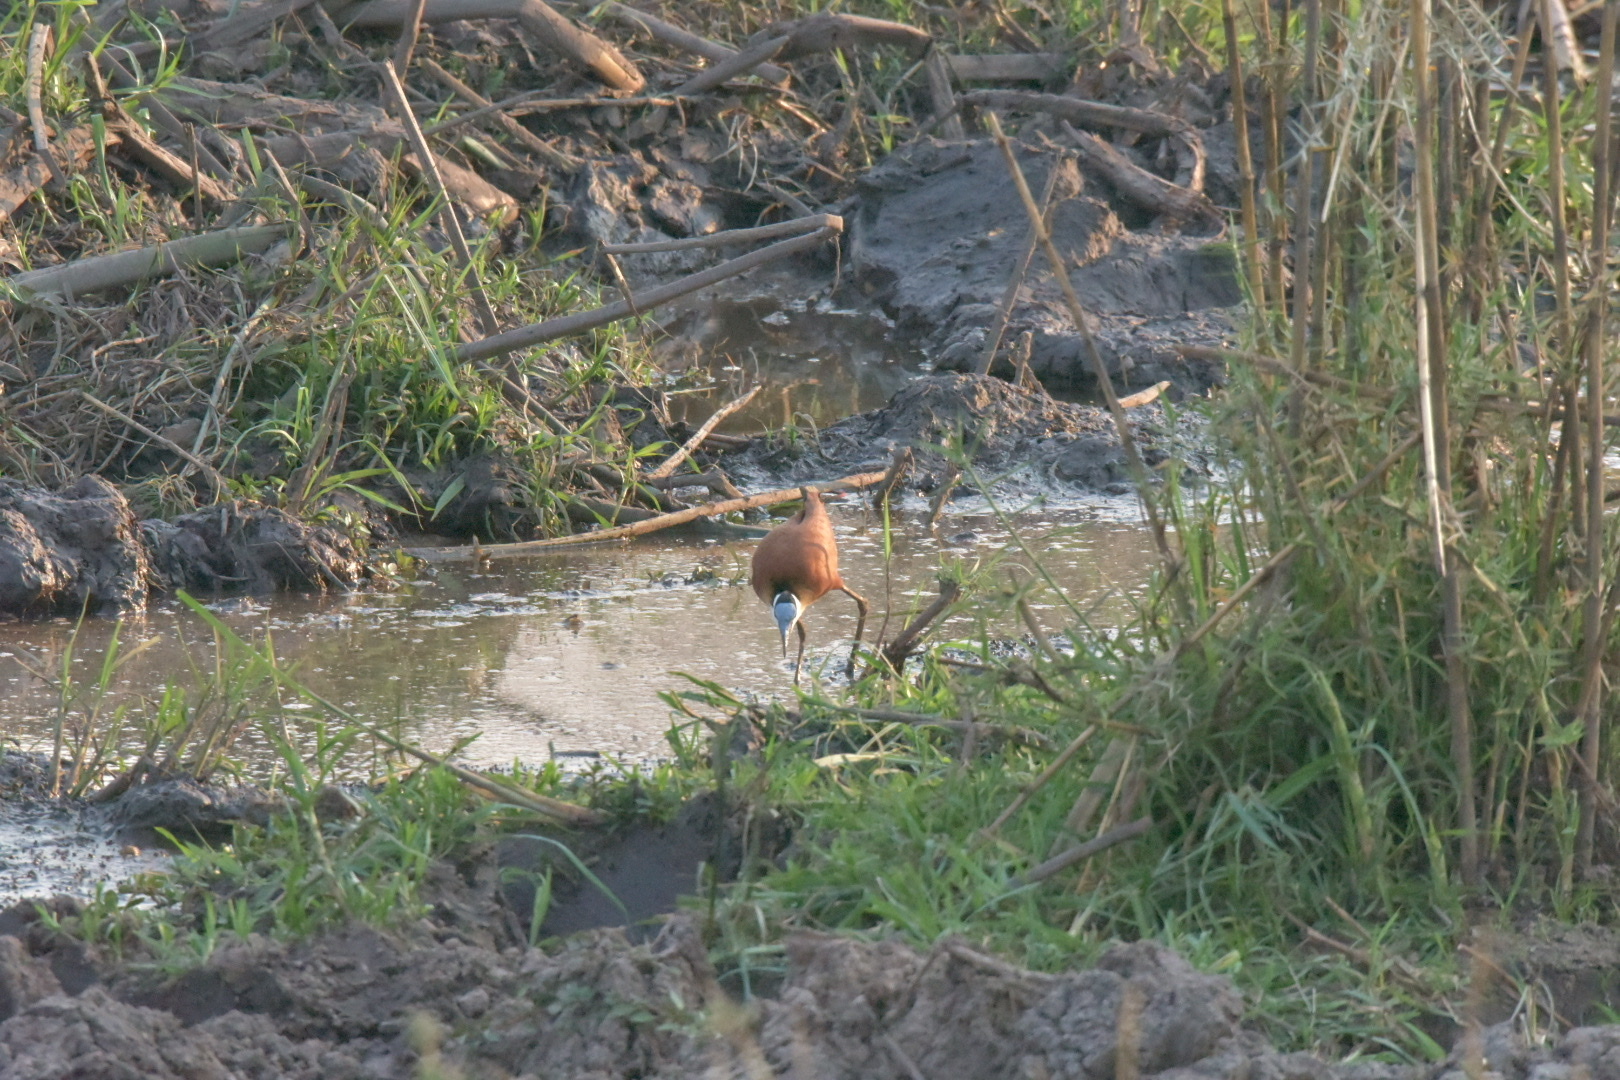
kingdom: Animalia
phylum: Chordata
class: Aves
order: Charadriiformes
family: Jacanidae
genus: Actophilornis
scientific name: Actophilornis africanus
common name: African jacana
